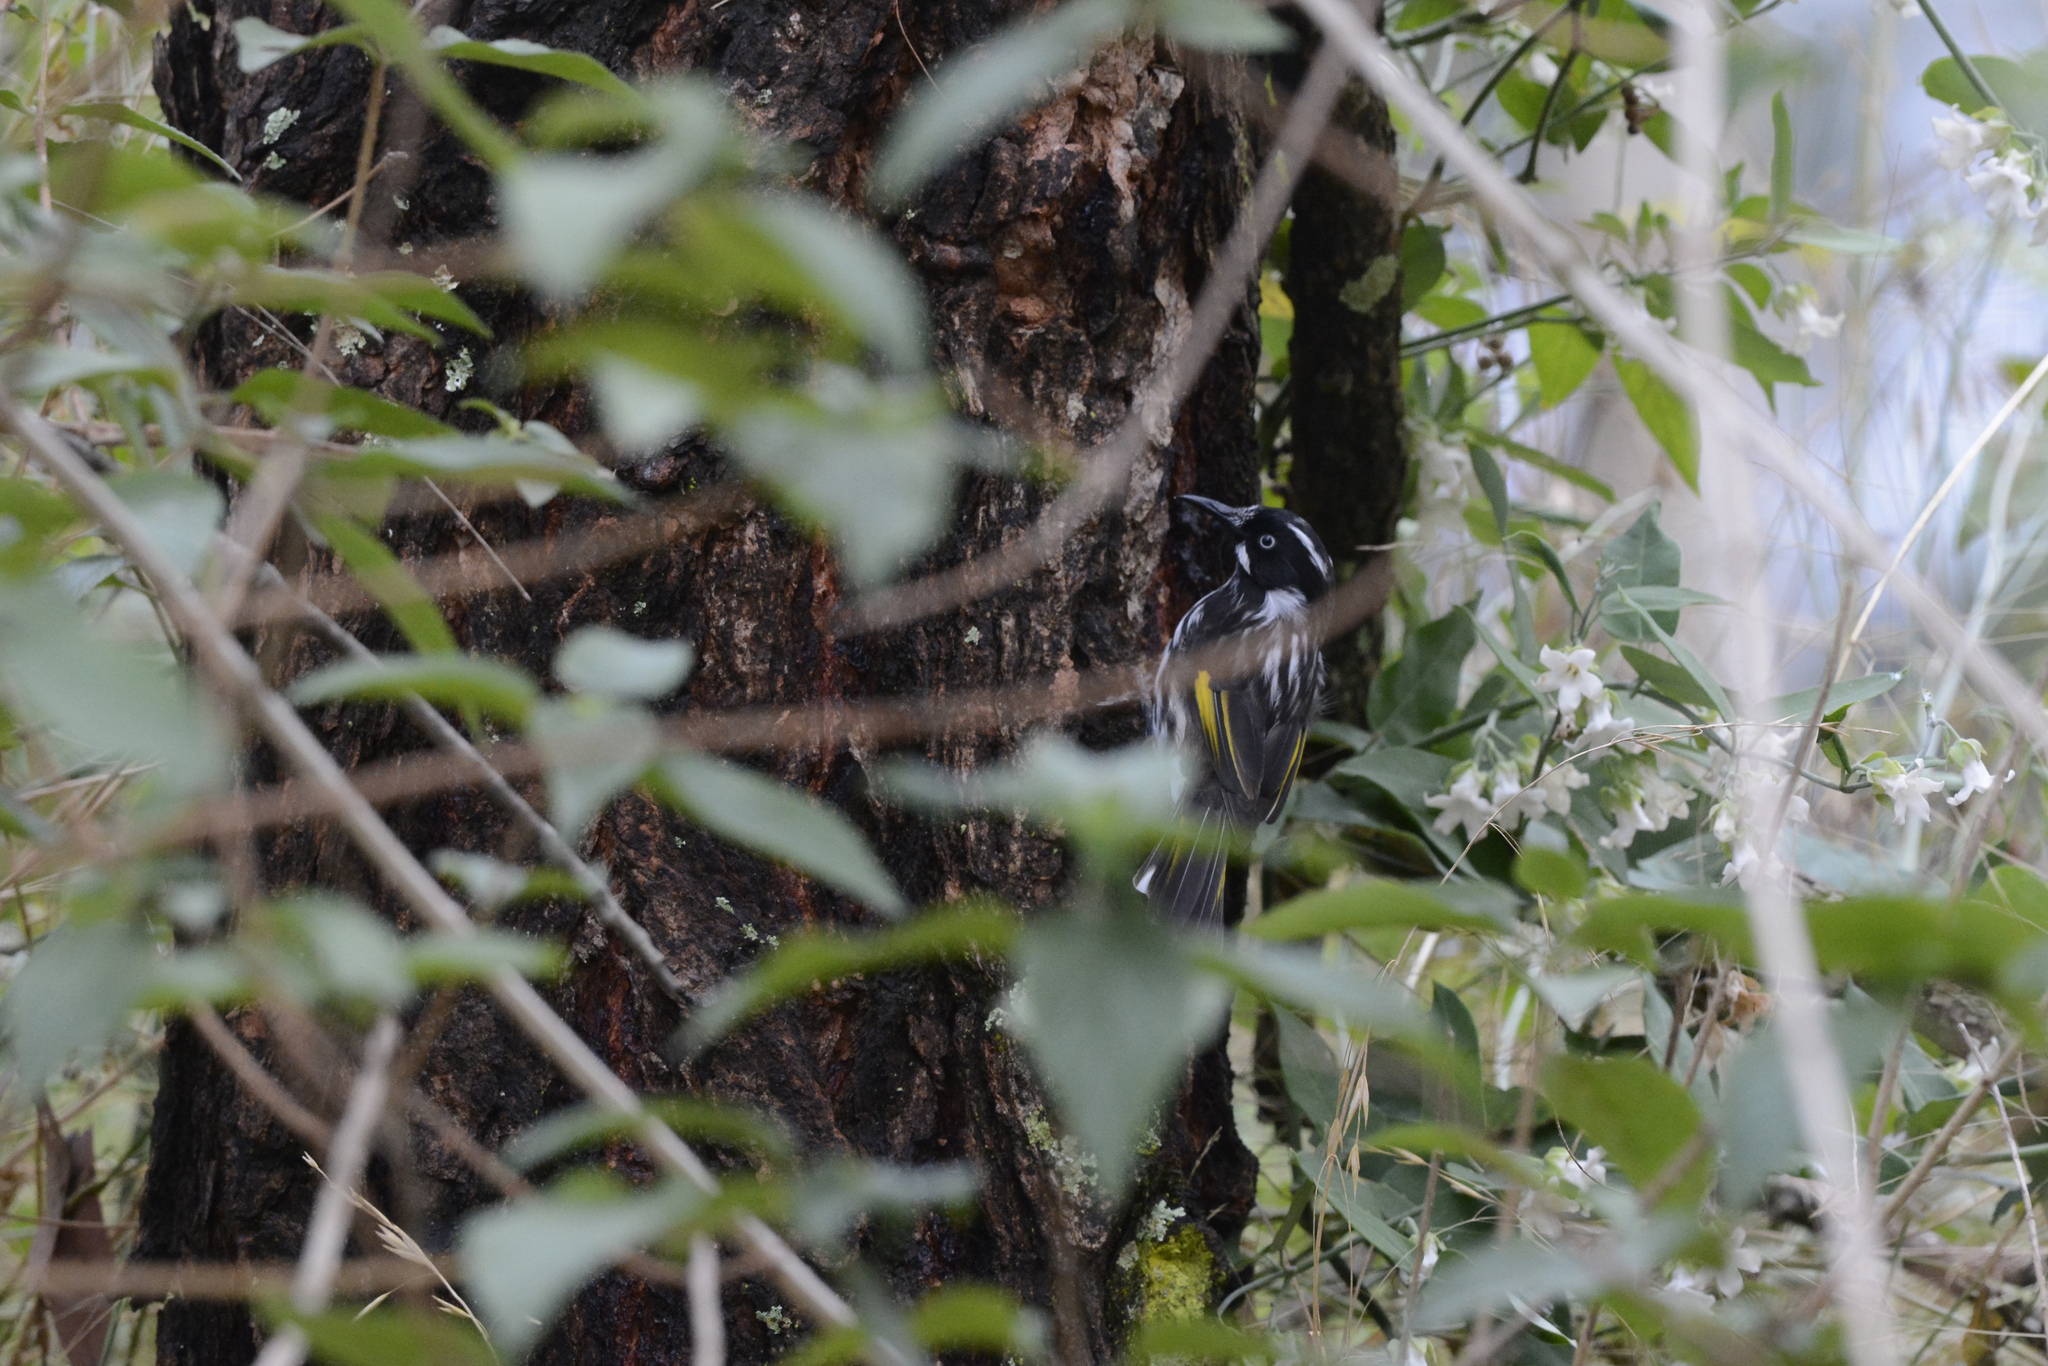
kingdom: Animalia
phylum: Chordata
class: Aves
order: Passeriformes
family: Meliphagidae
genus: Phylidonyris
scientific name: Phylidonyris novaehollandiae
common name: New holland honeyeater
